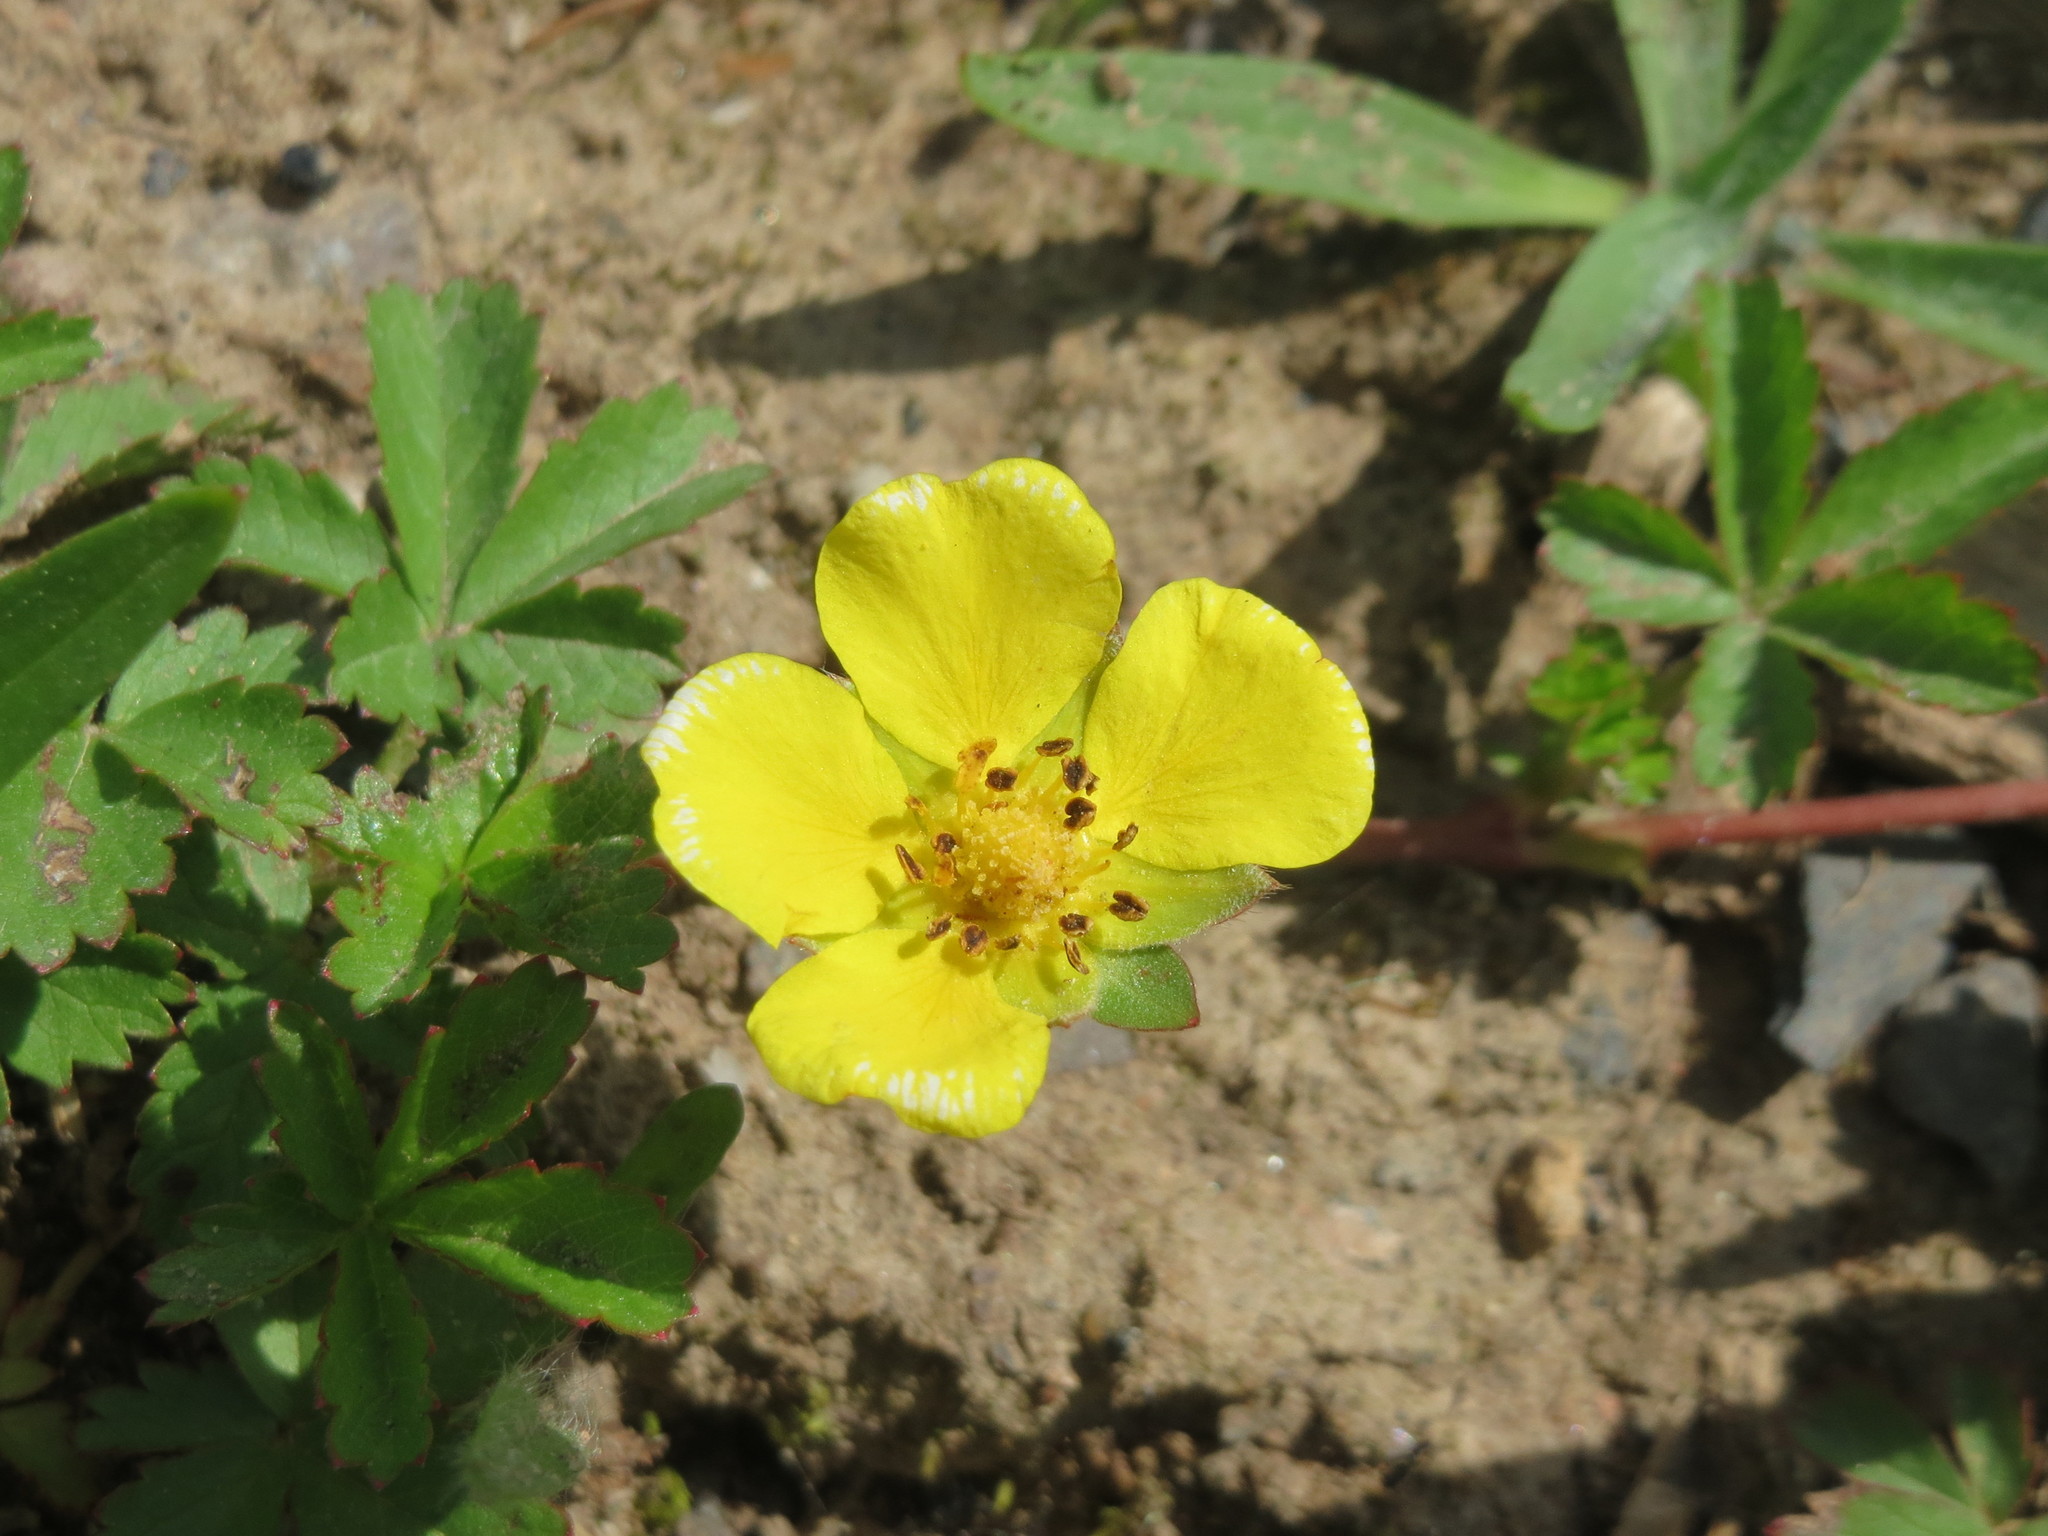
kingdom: Plantae
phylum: Tracheophyta
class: Magnoliopsida
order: Rosales
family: Rosaceae
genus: Potentilla
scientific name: Potentilla reptans
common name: Creeping cinquefoil
